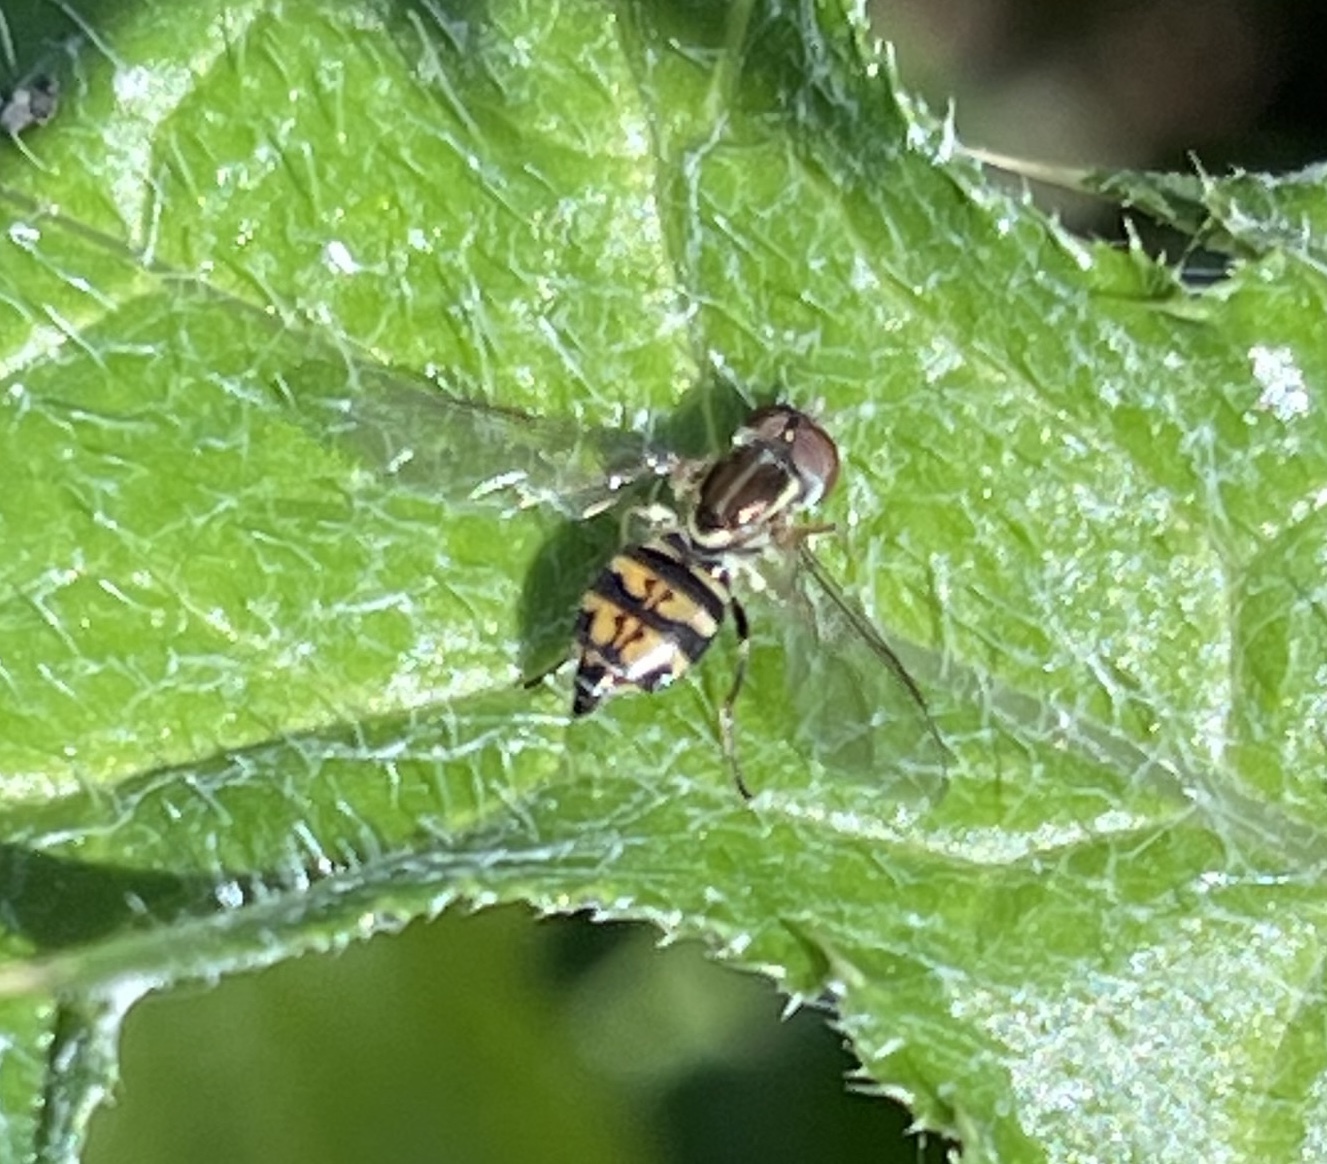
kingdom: Animalia
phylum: Arthropoda
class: Insecta
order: Diptera
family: Syrphidae
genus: Toxomerus
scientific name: Toxomerus occidentalis
